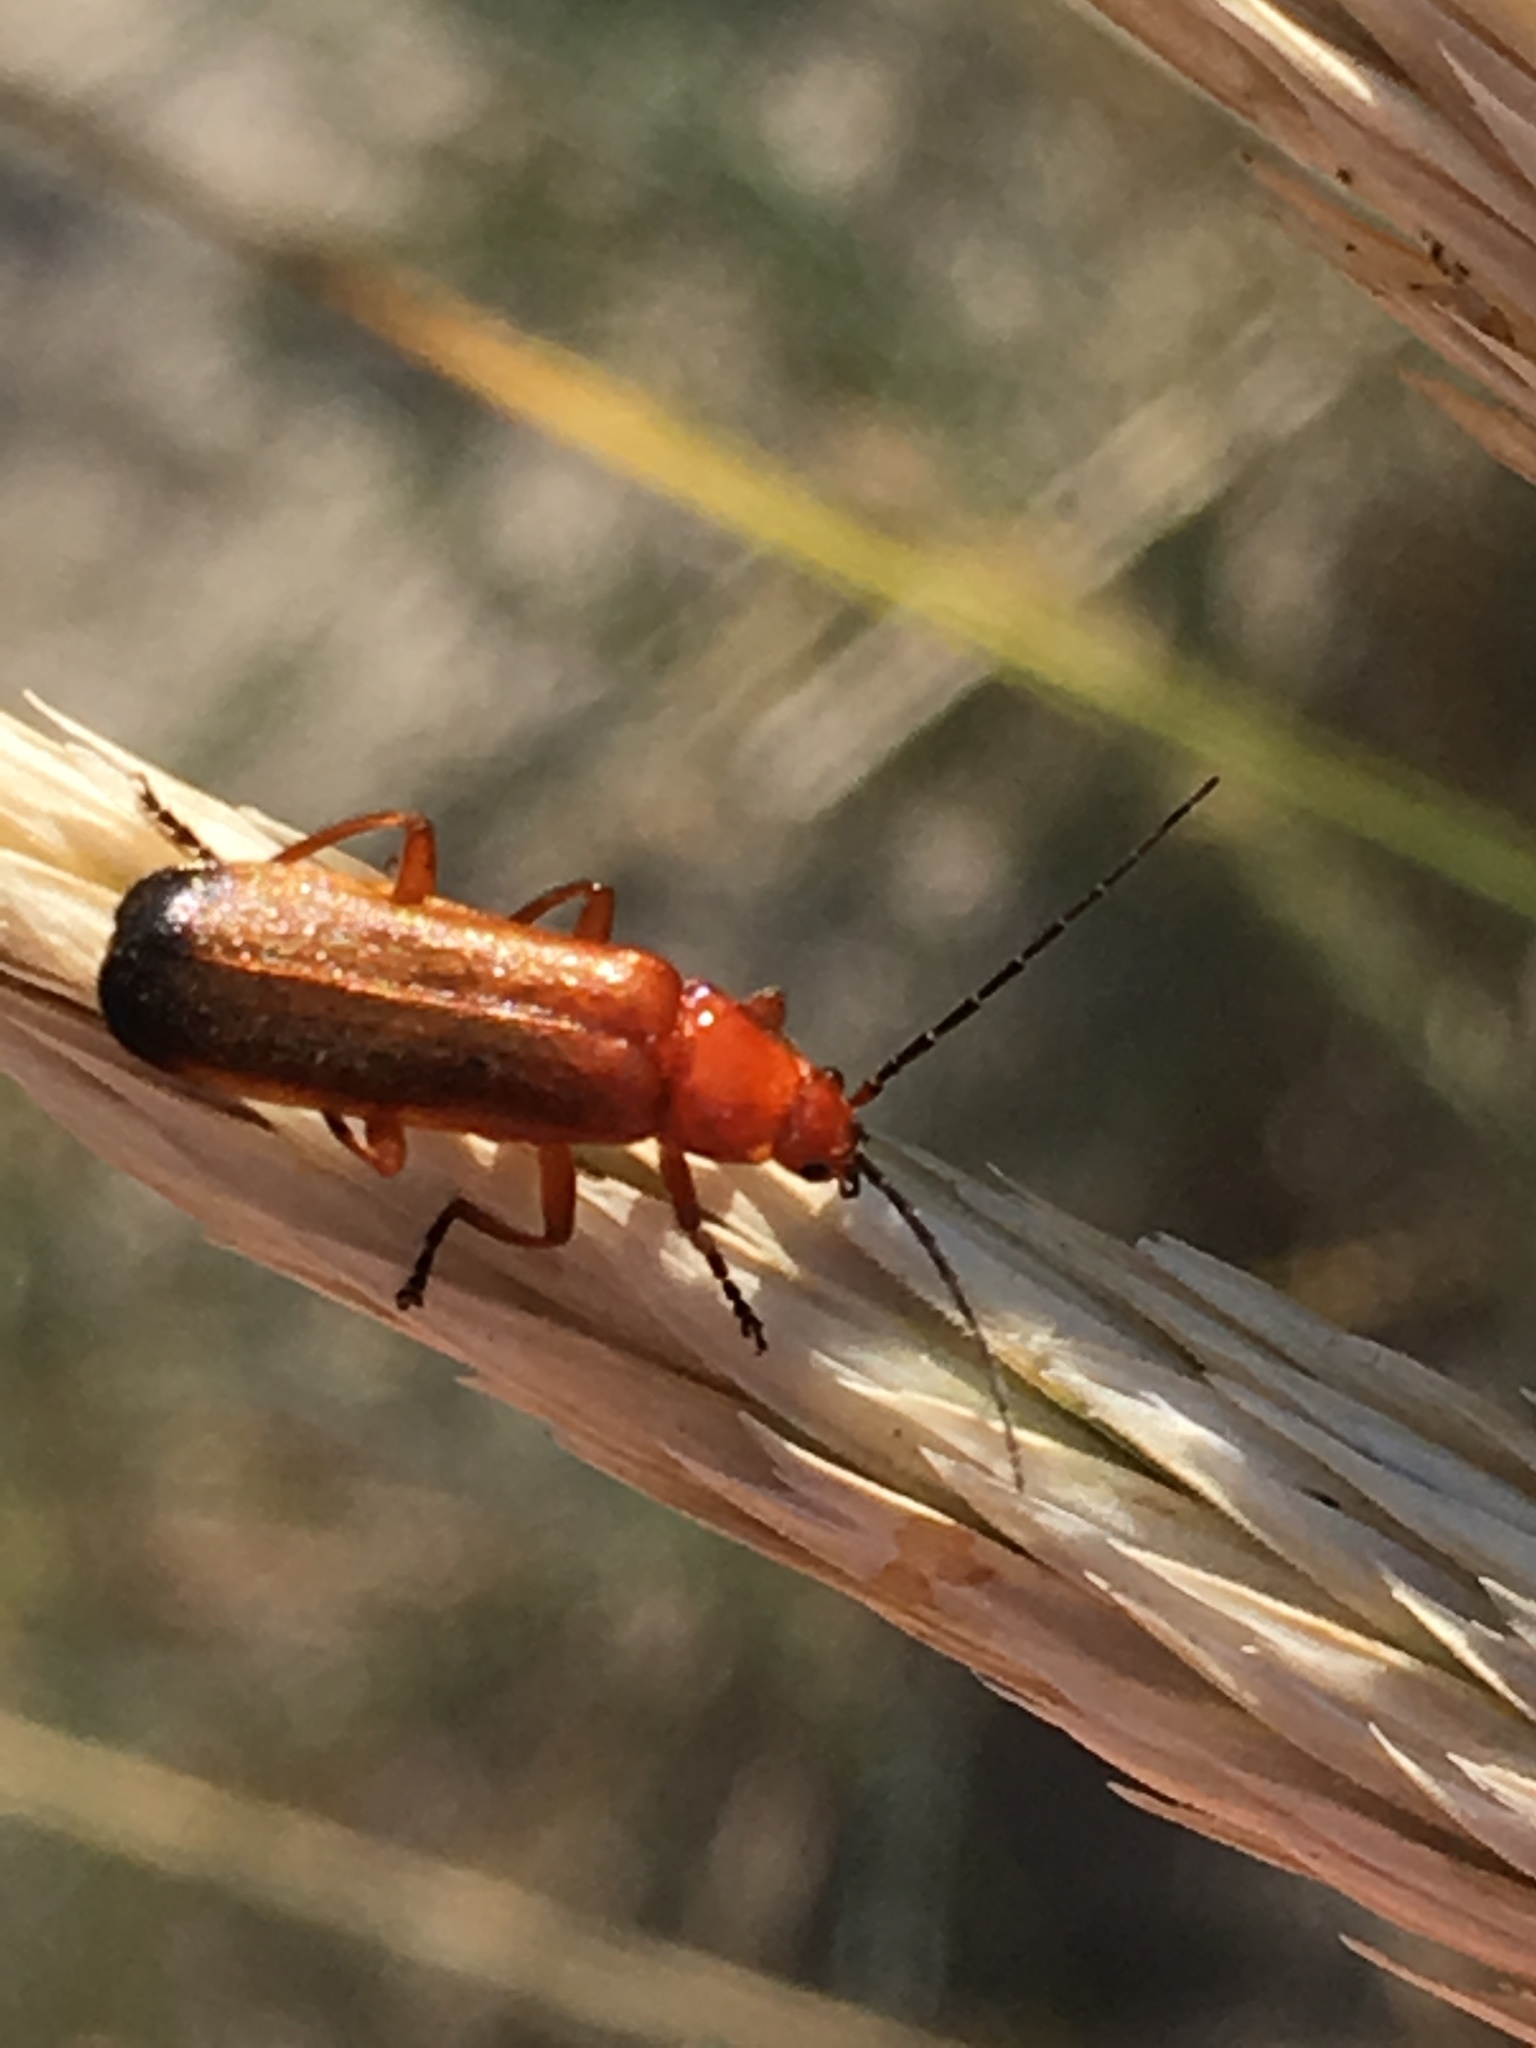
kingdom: Animalia
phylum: Arthropoda
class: Insecta
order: Coleoptera
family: Cantharidae
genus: Rhagonycha
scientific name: Rhagonycha fulva
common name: Common red soldier beetle
